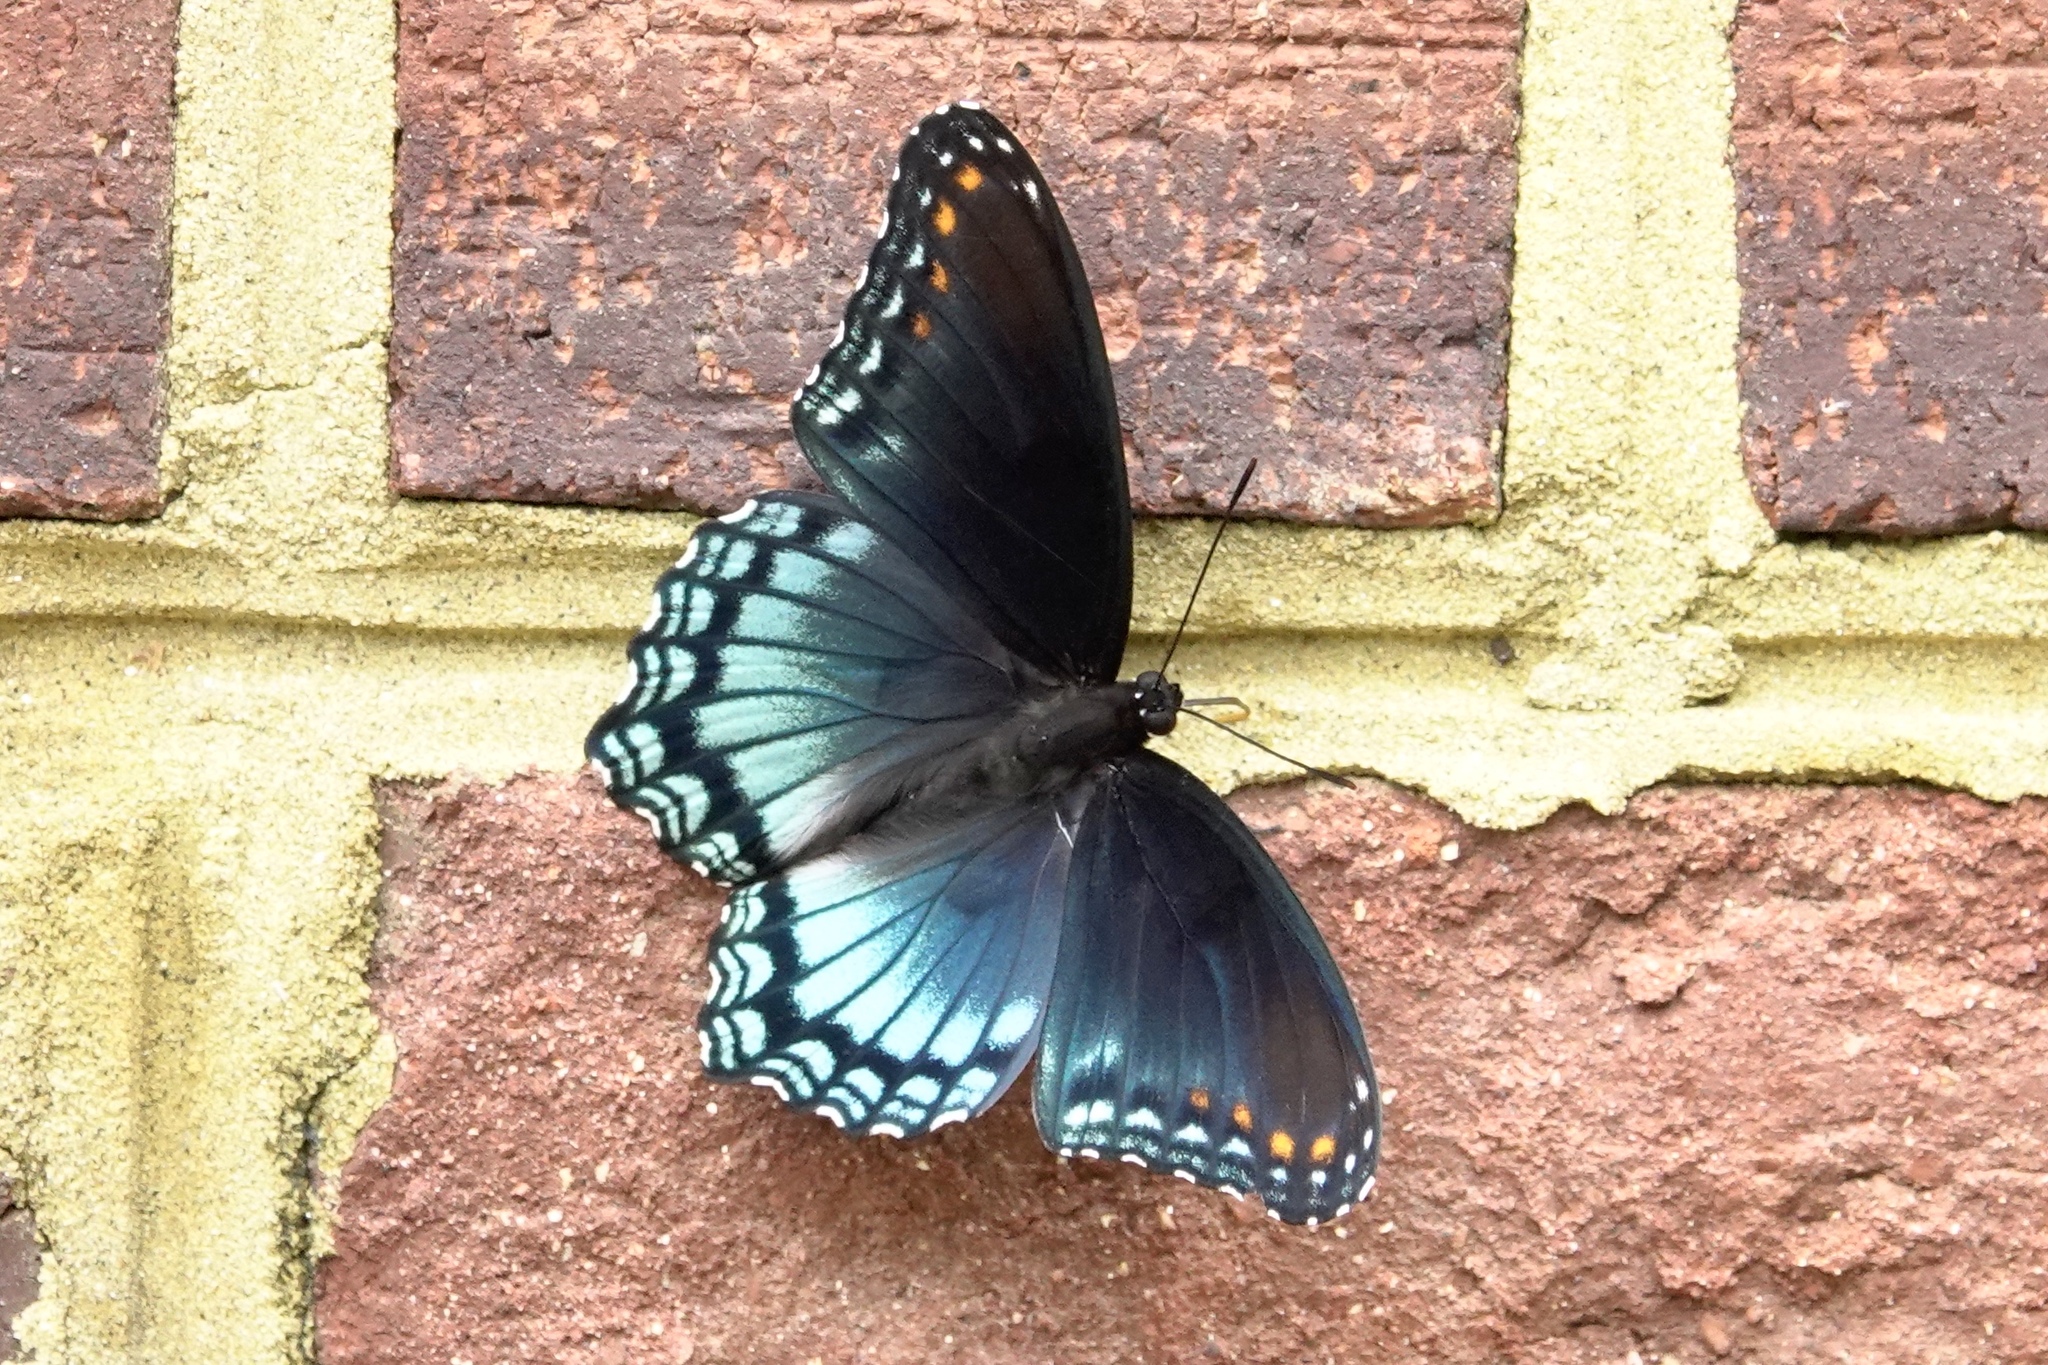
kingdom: Animalia
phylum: Arthropoda
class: Insecta
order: Lepidoptera
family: Nymphalidae
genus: Limenitis
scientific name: Limenitis astyanax
